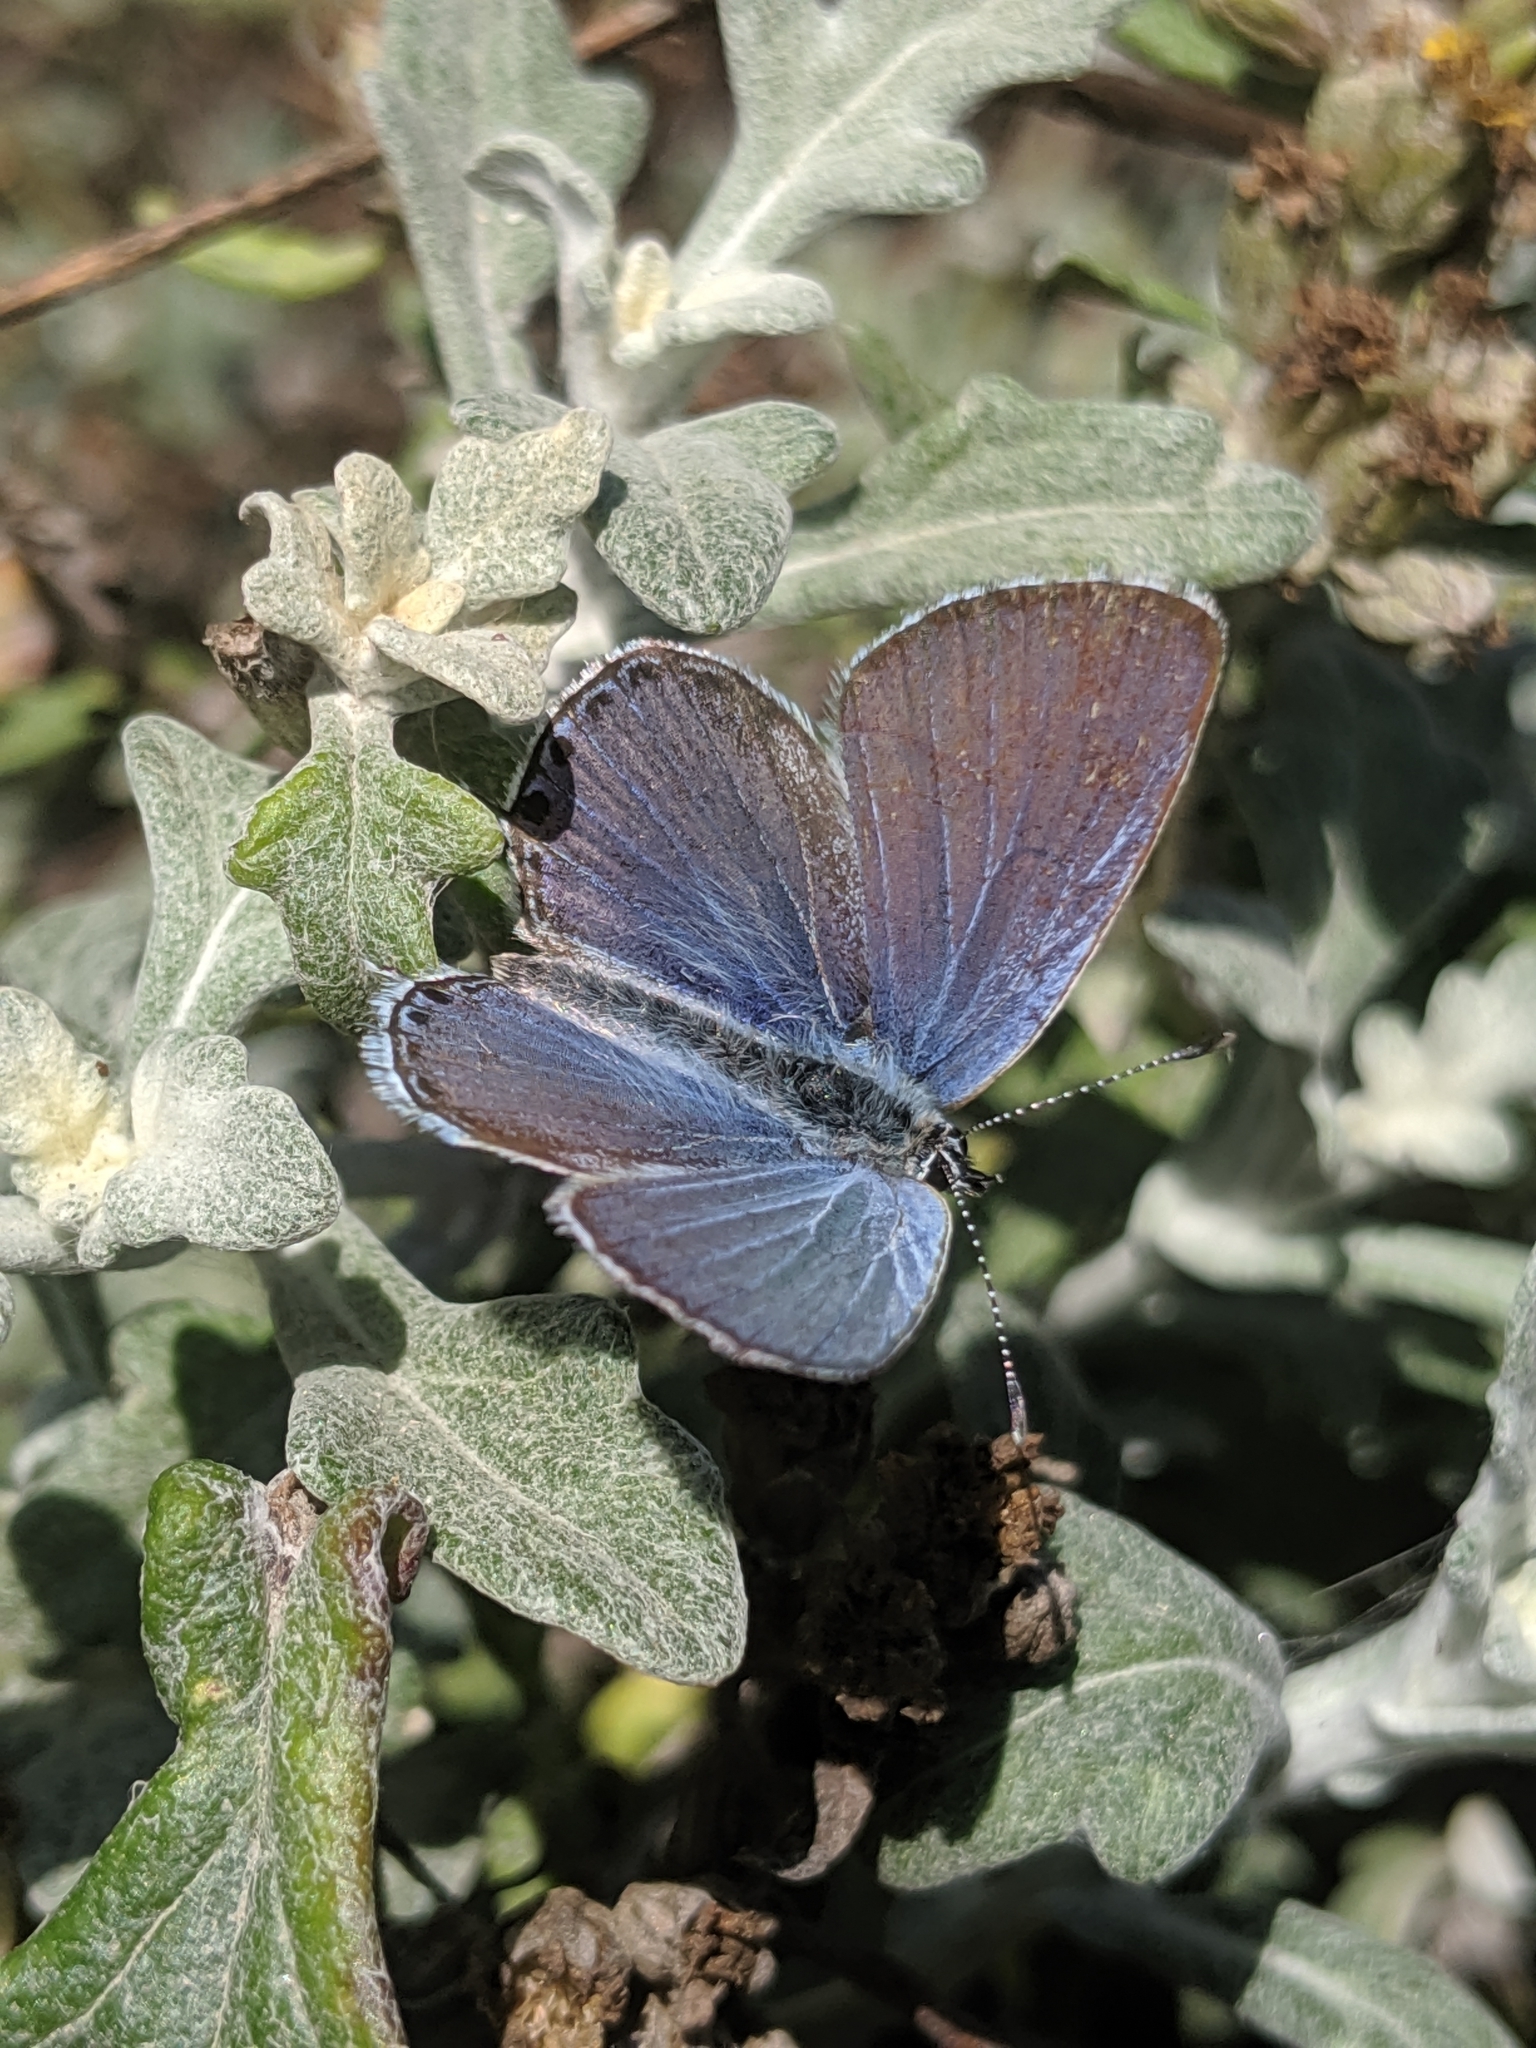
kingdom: Animalia
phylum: Arthropoda
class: Insecta
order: Lepidoptera
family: Lycaenidae
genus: Elkalyce
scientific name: Elkalyce amyntula
